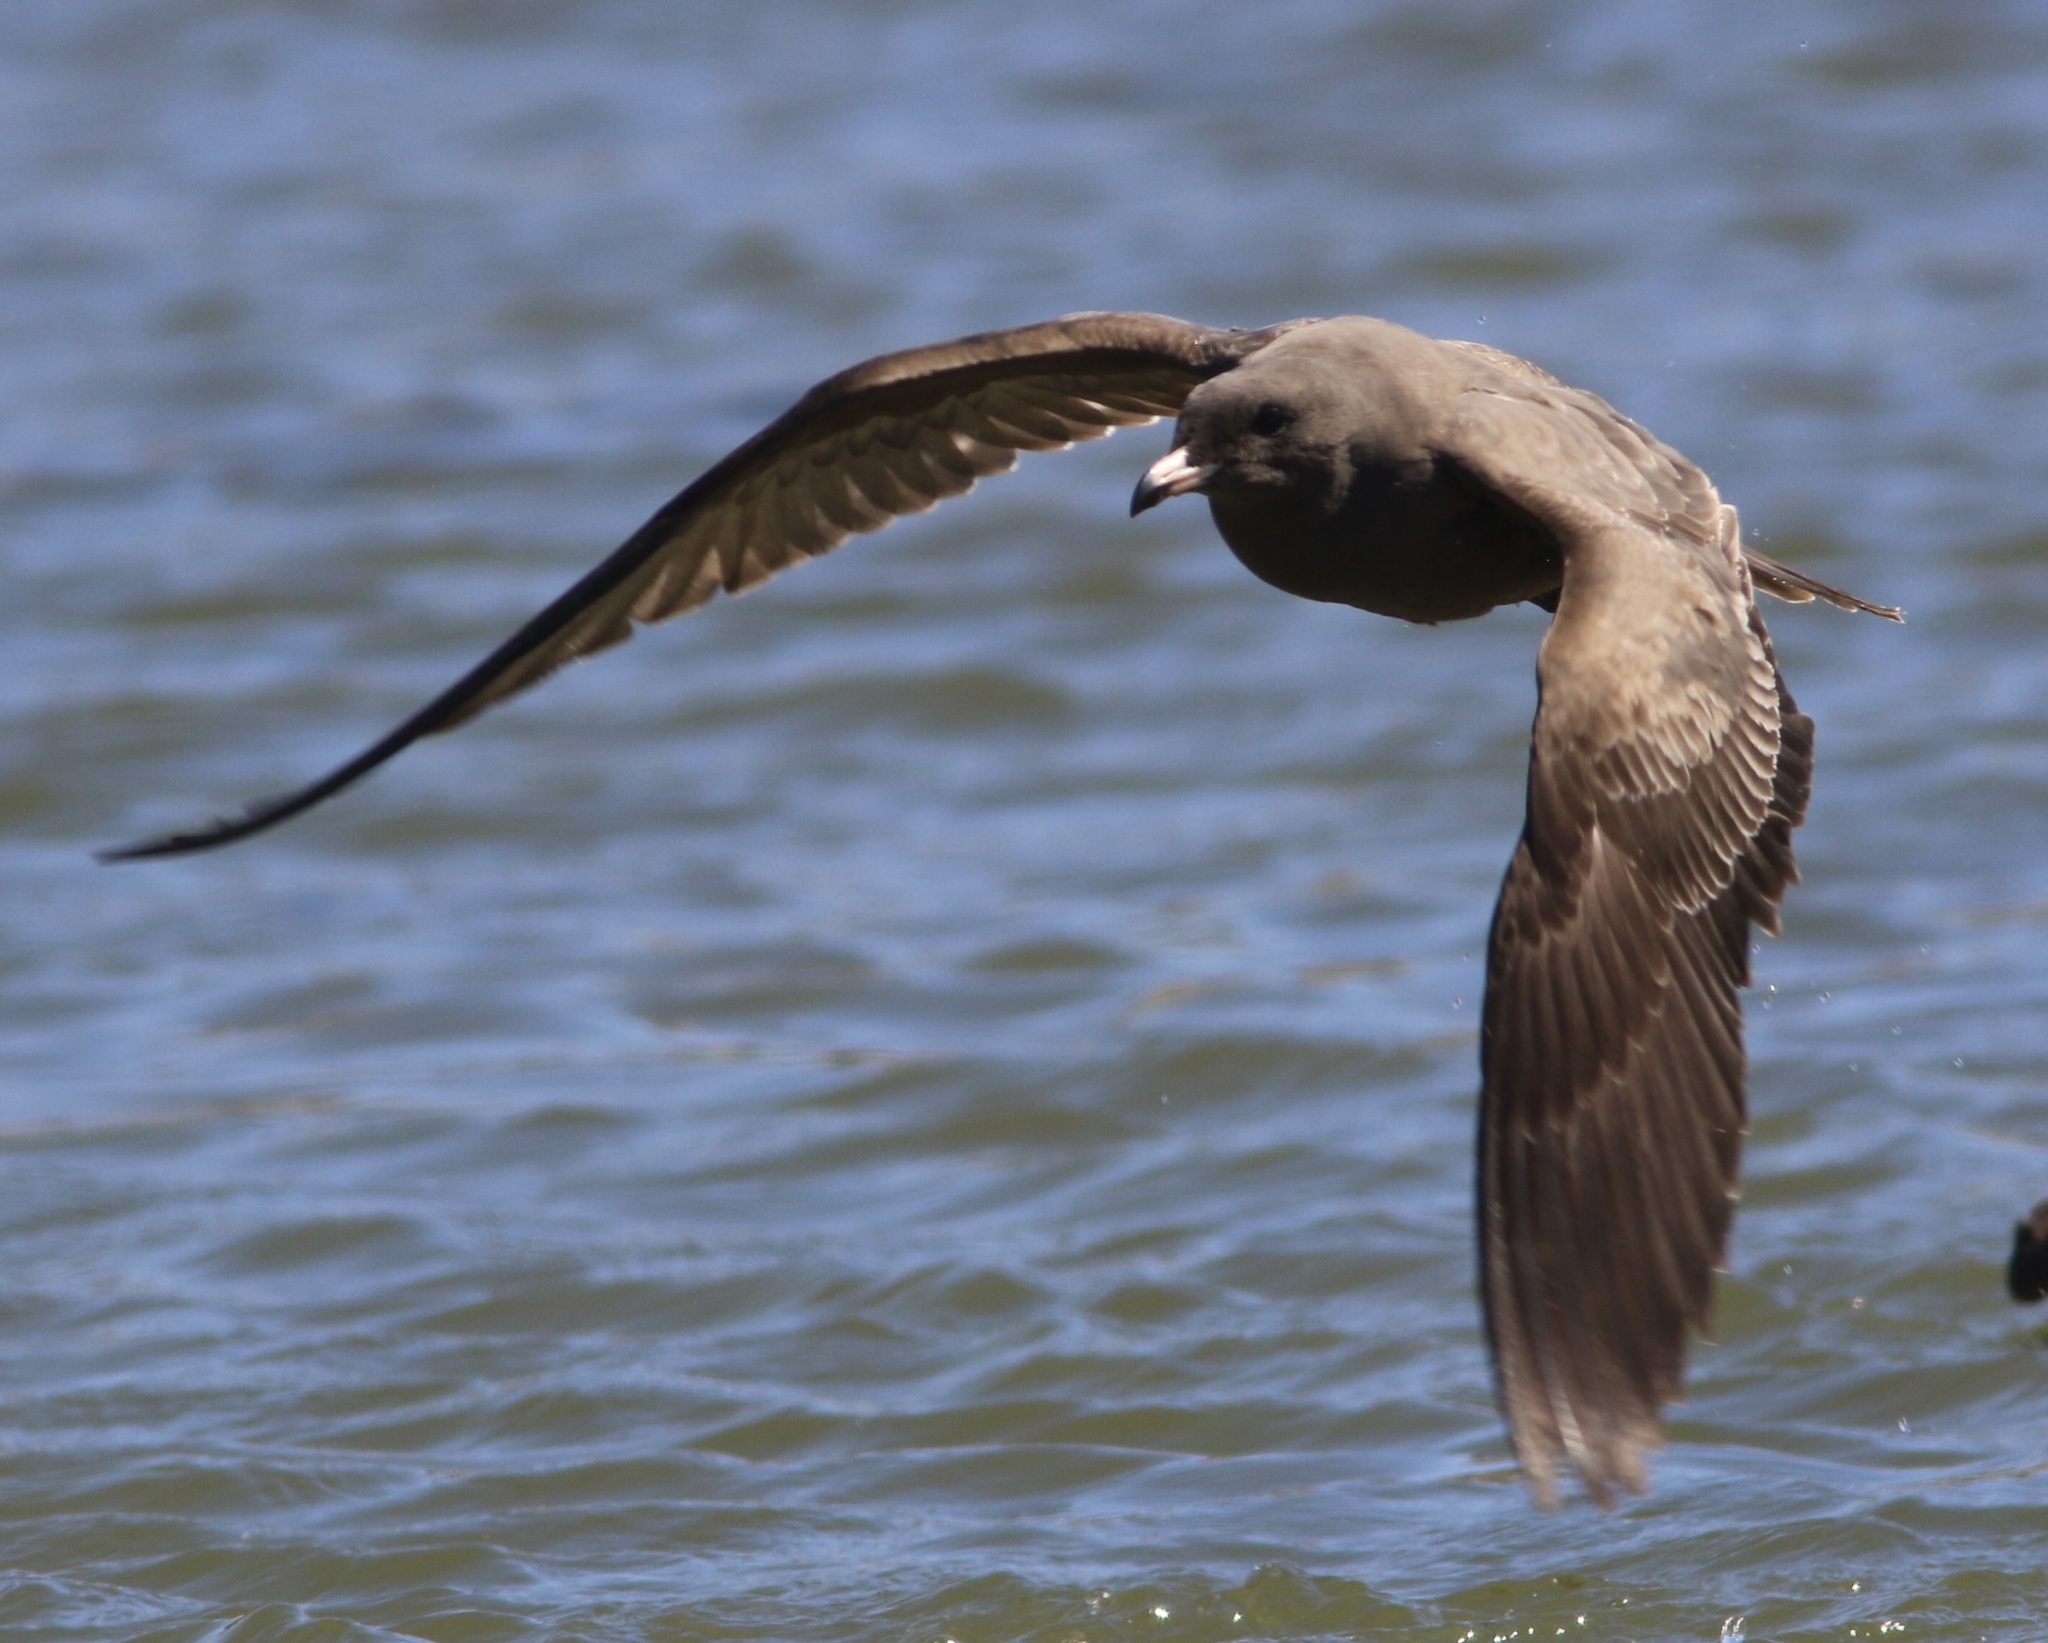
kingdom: Animalia
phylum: Chordata
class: Aves
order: Charadriiformes
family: Laridae
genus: Larus
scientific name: Larus heermanni
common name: Heermann's gull
